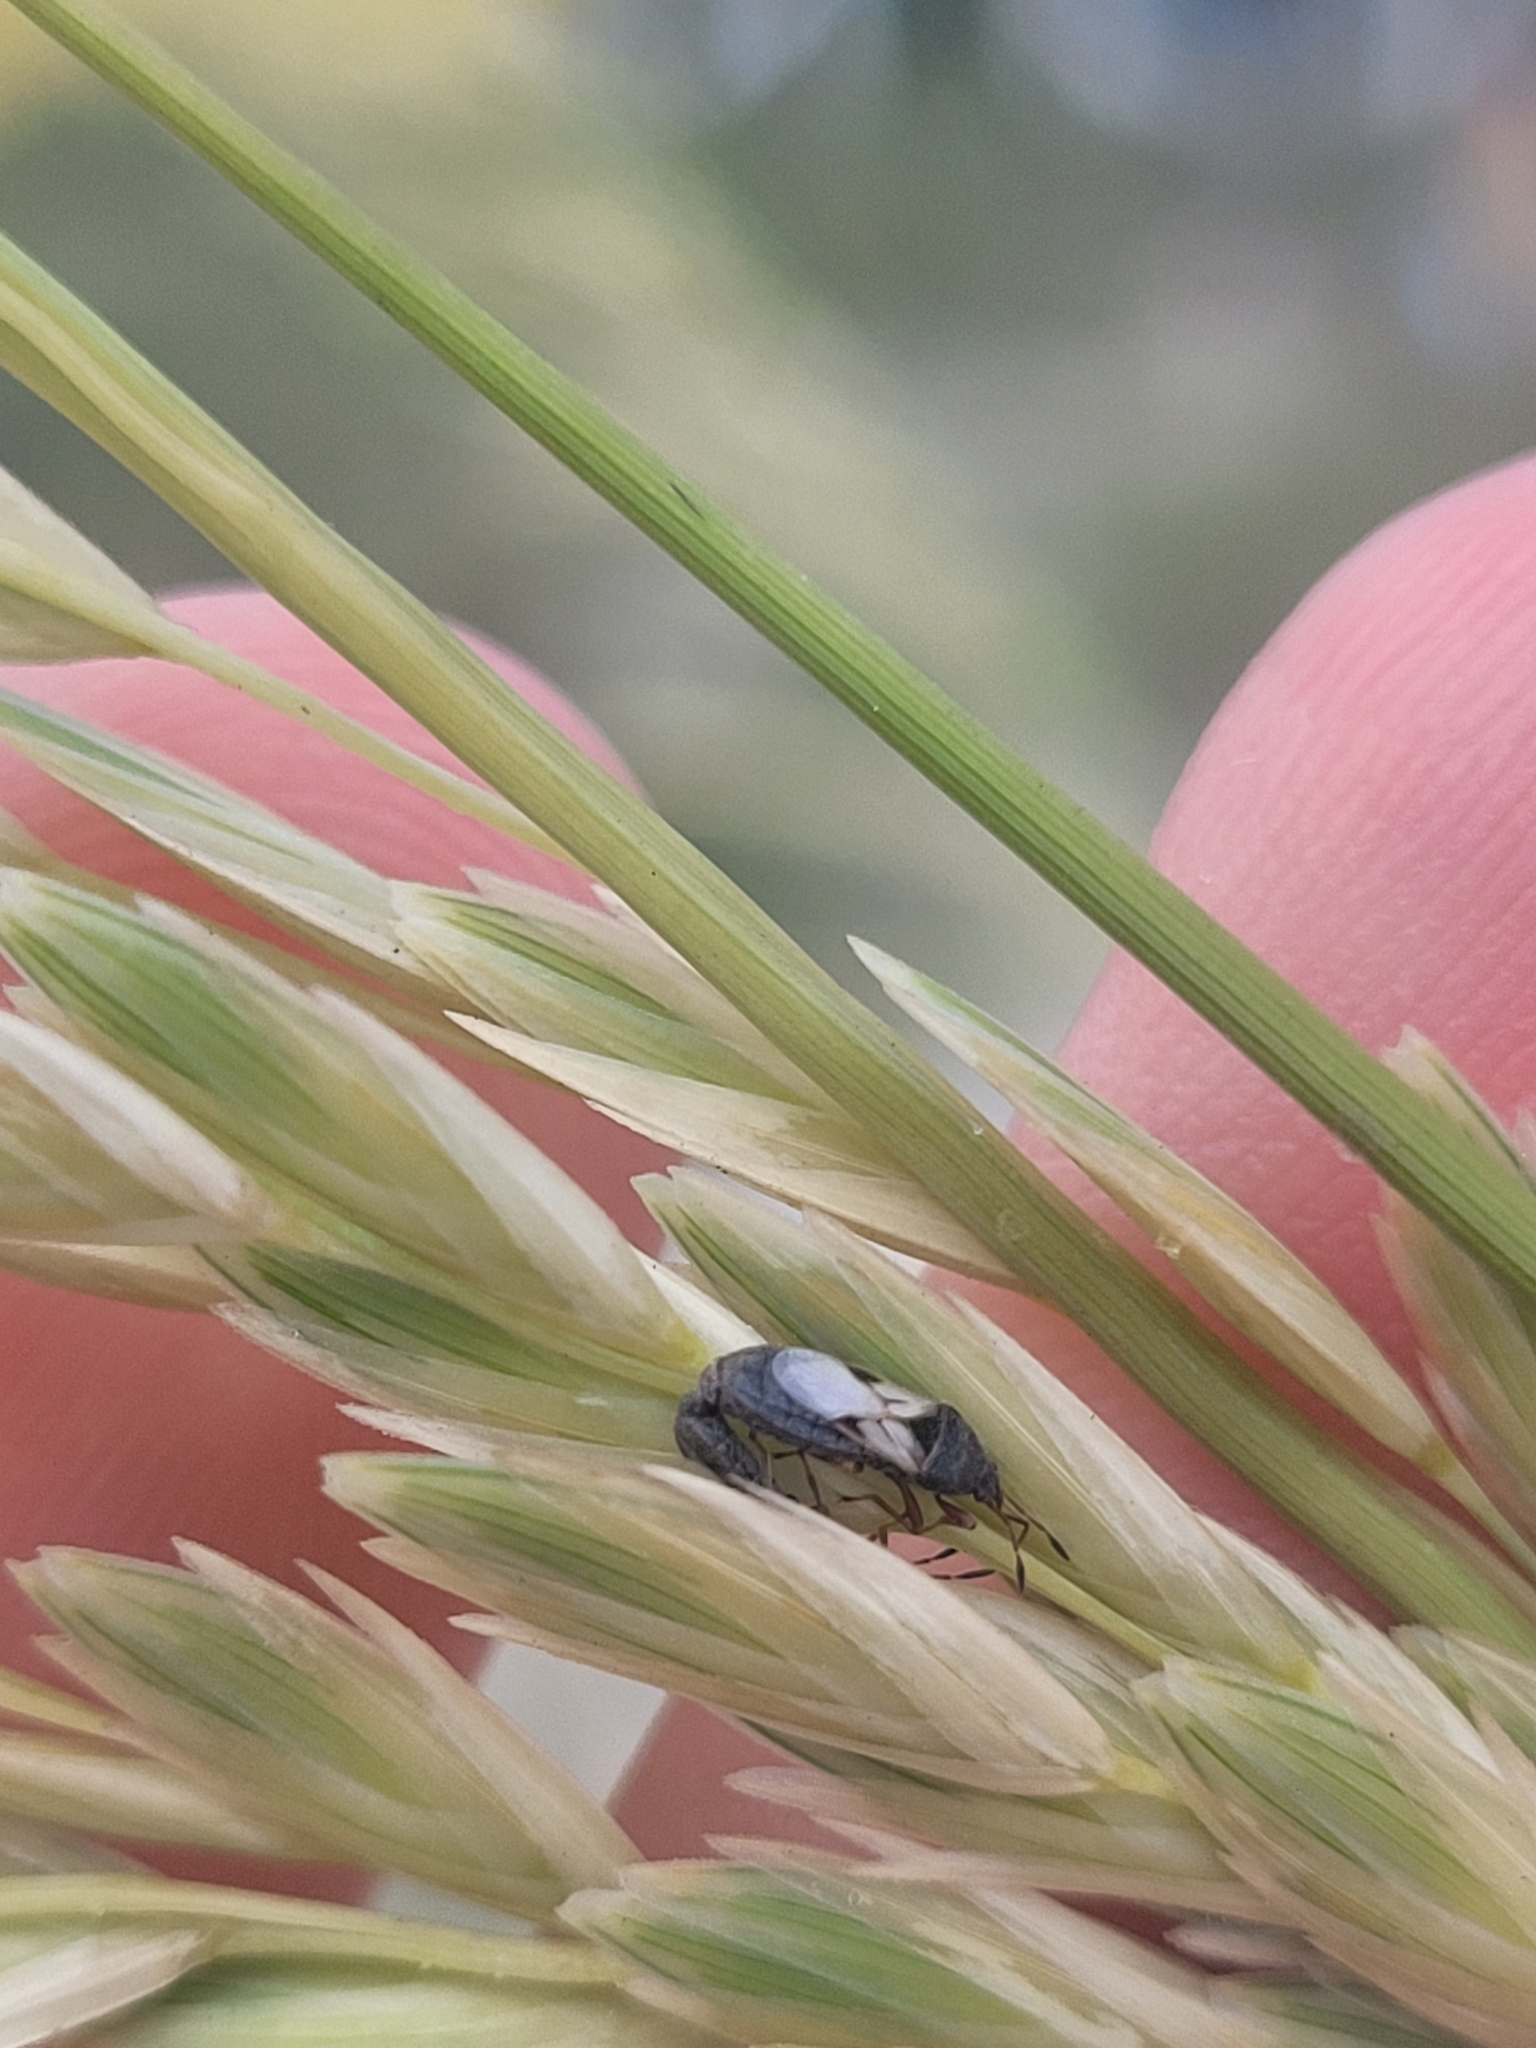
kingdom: Plantae
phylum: Tracheophyta
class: Liliopsida
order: Poales
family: Poaceae
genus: Uniola
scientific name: Uniola paniculata
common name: Seaside-oats
